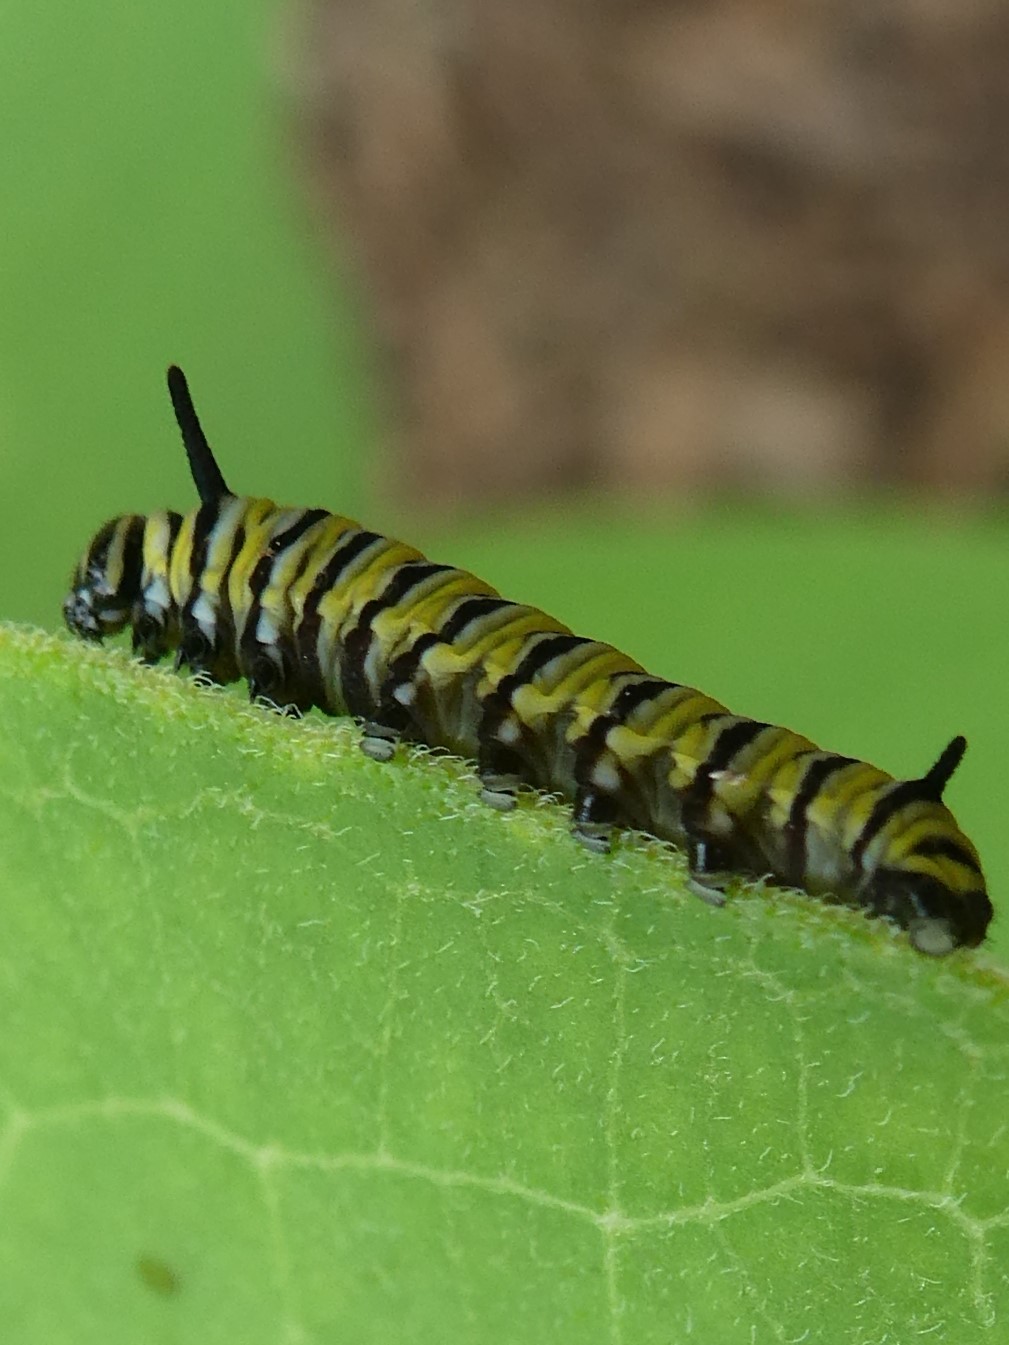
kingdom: Animalia
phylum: Arthropoda
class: Insecta
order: Lepidoptera
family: Nymphalidae
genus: Danaus
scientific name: Danaus plexippus
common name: Monarch
